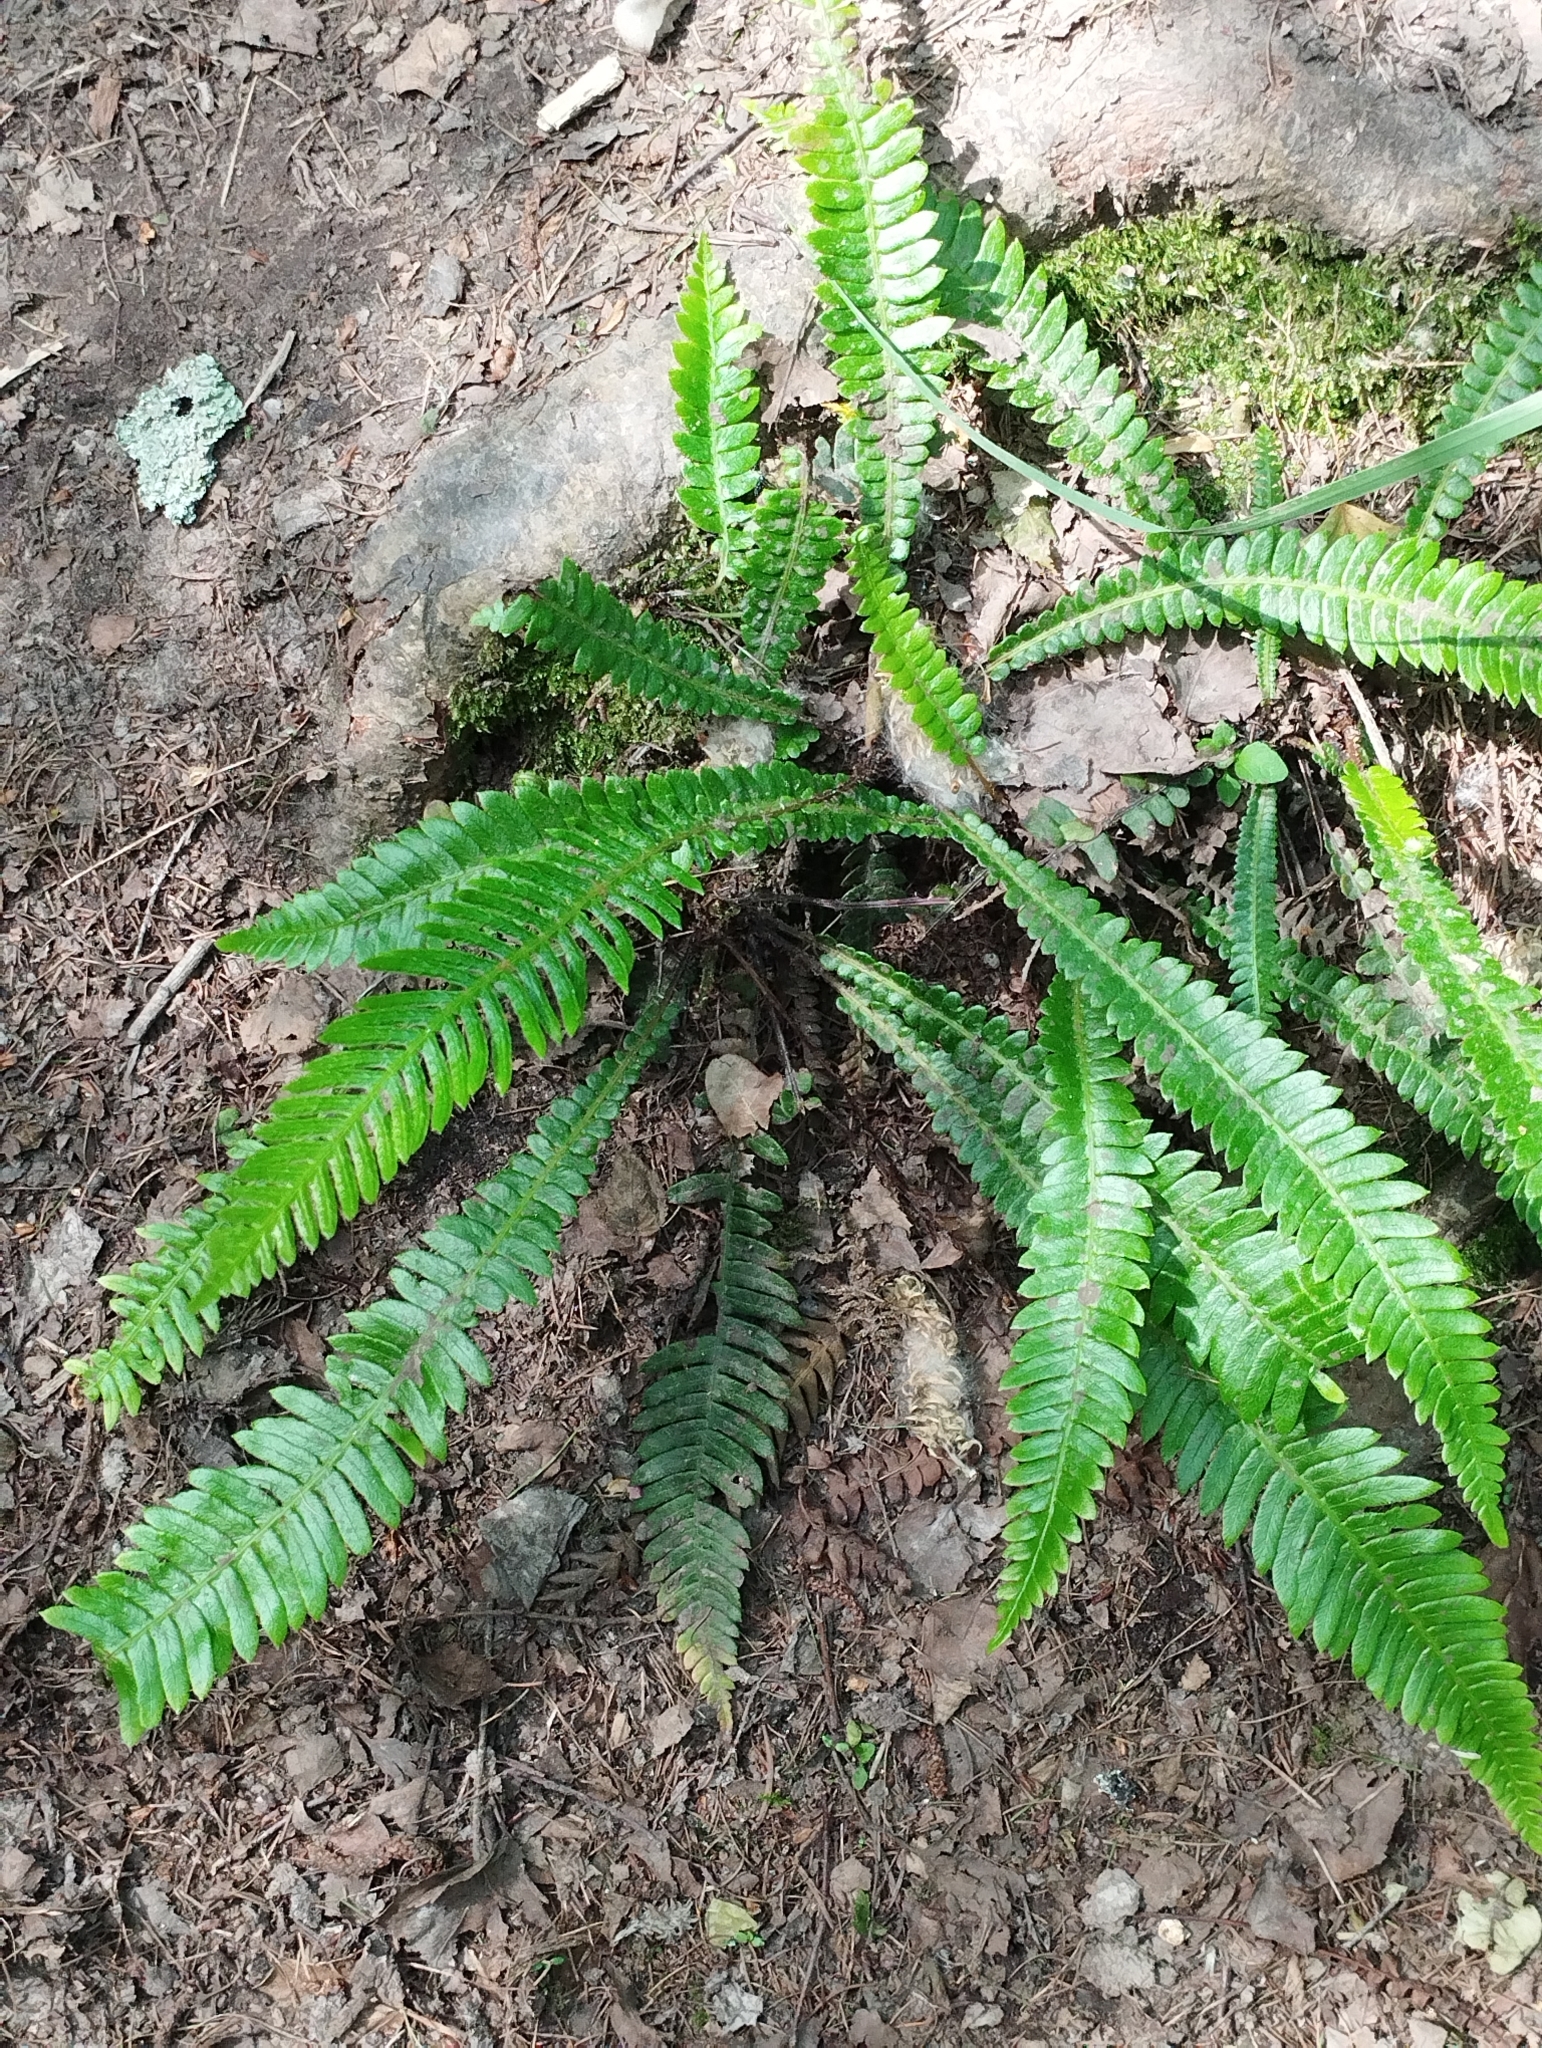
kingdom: Plantae
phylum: Tracheophyta
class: Polypodiopsida
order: Polypodiales
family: Blechnaceae
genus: Struthiopteris
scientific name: Struthiopteris spicant
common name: Deer fern
